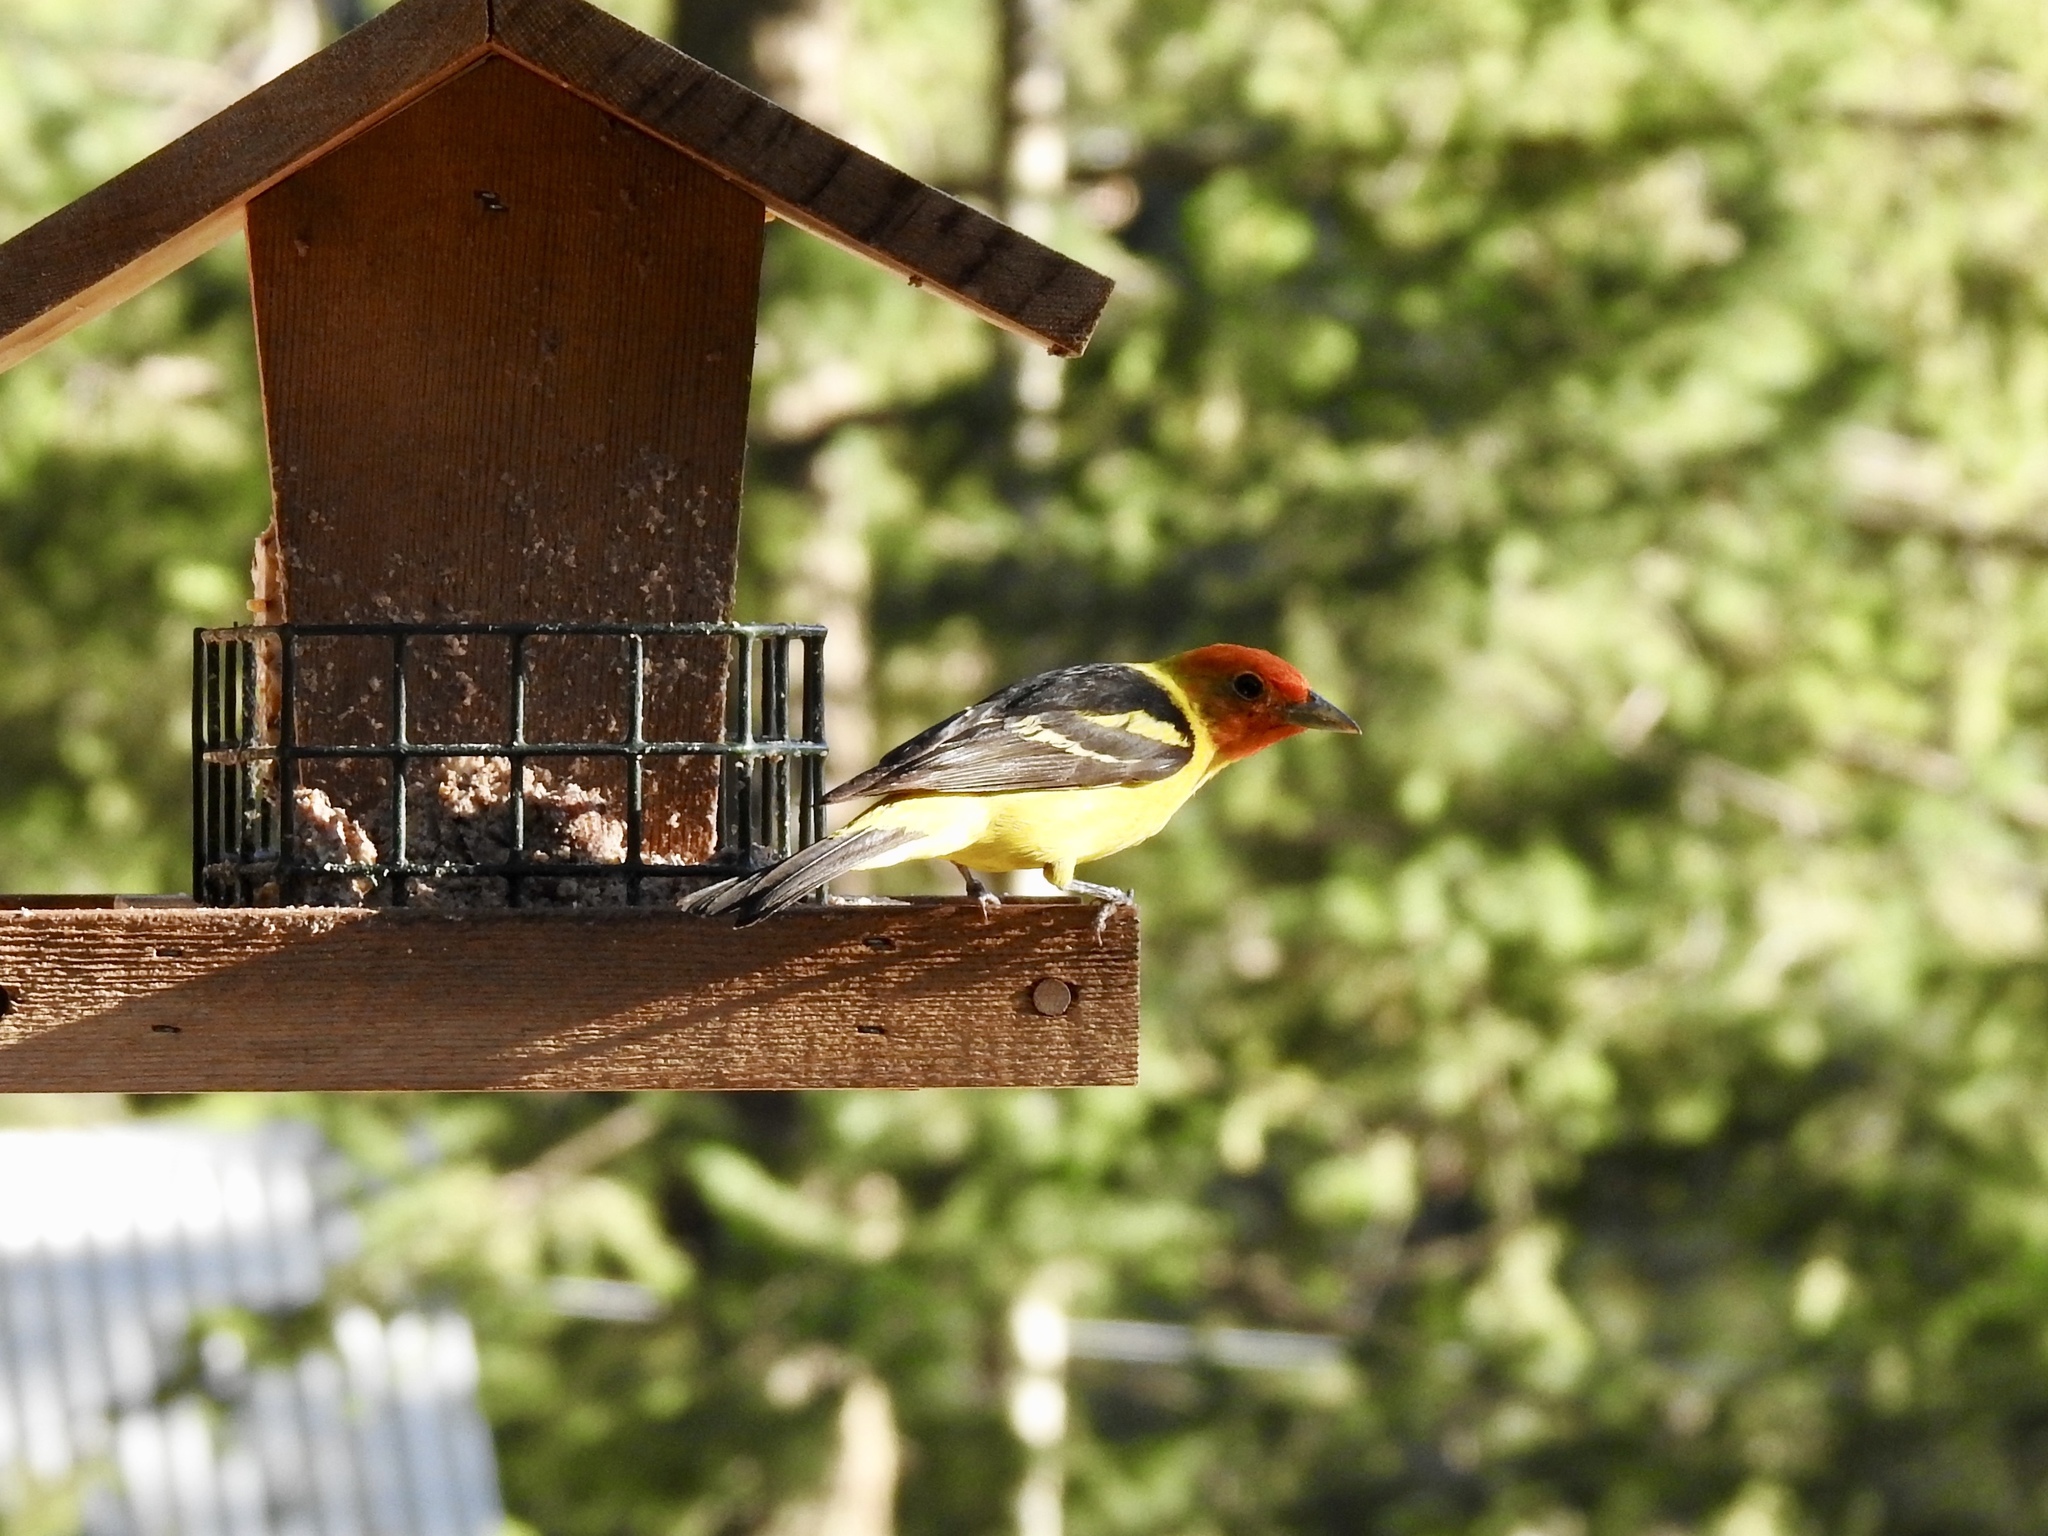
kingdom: Animalia
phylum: Chordata
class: Aves
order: Passeriformes
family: Cardinalidae
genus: Piranga
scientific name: Piranga ludoviciana
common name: Western tanager
